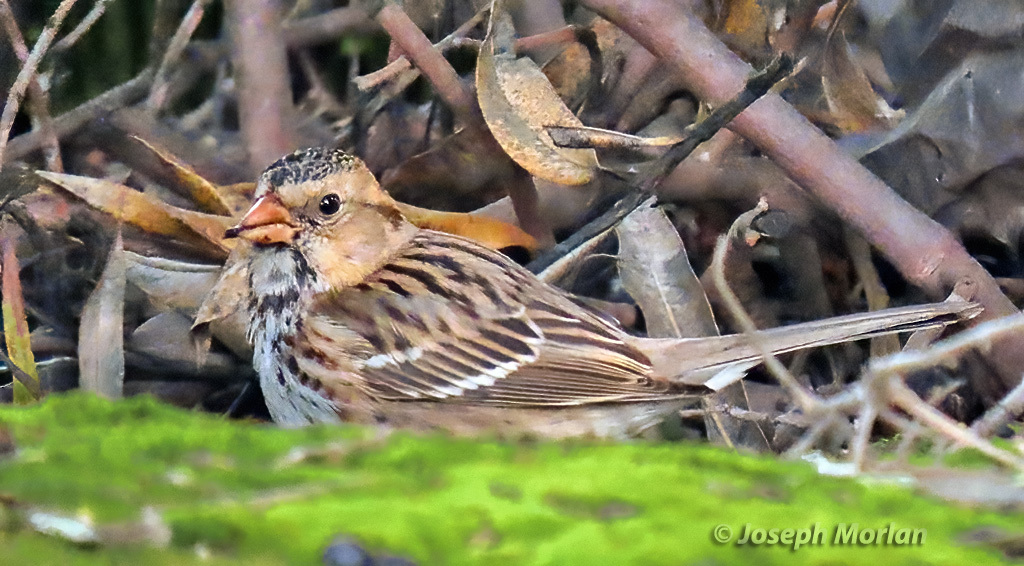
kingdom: Animalia
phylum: Chordata
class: Aves
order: Passeriformes
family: Passerellidae
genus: Zonotrichia
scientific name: Zonotrichia querula
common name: Harris's sparrow
